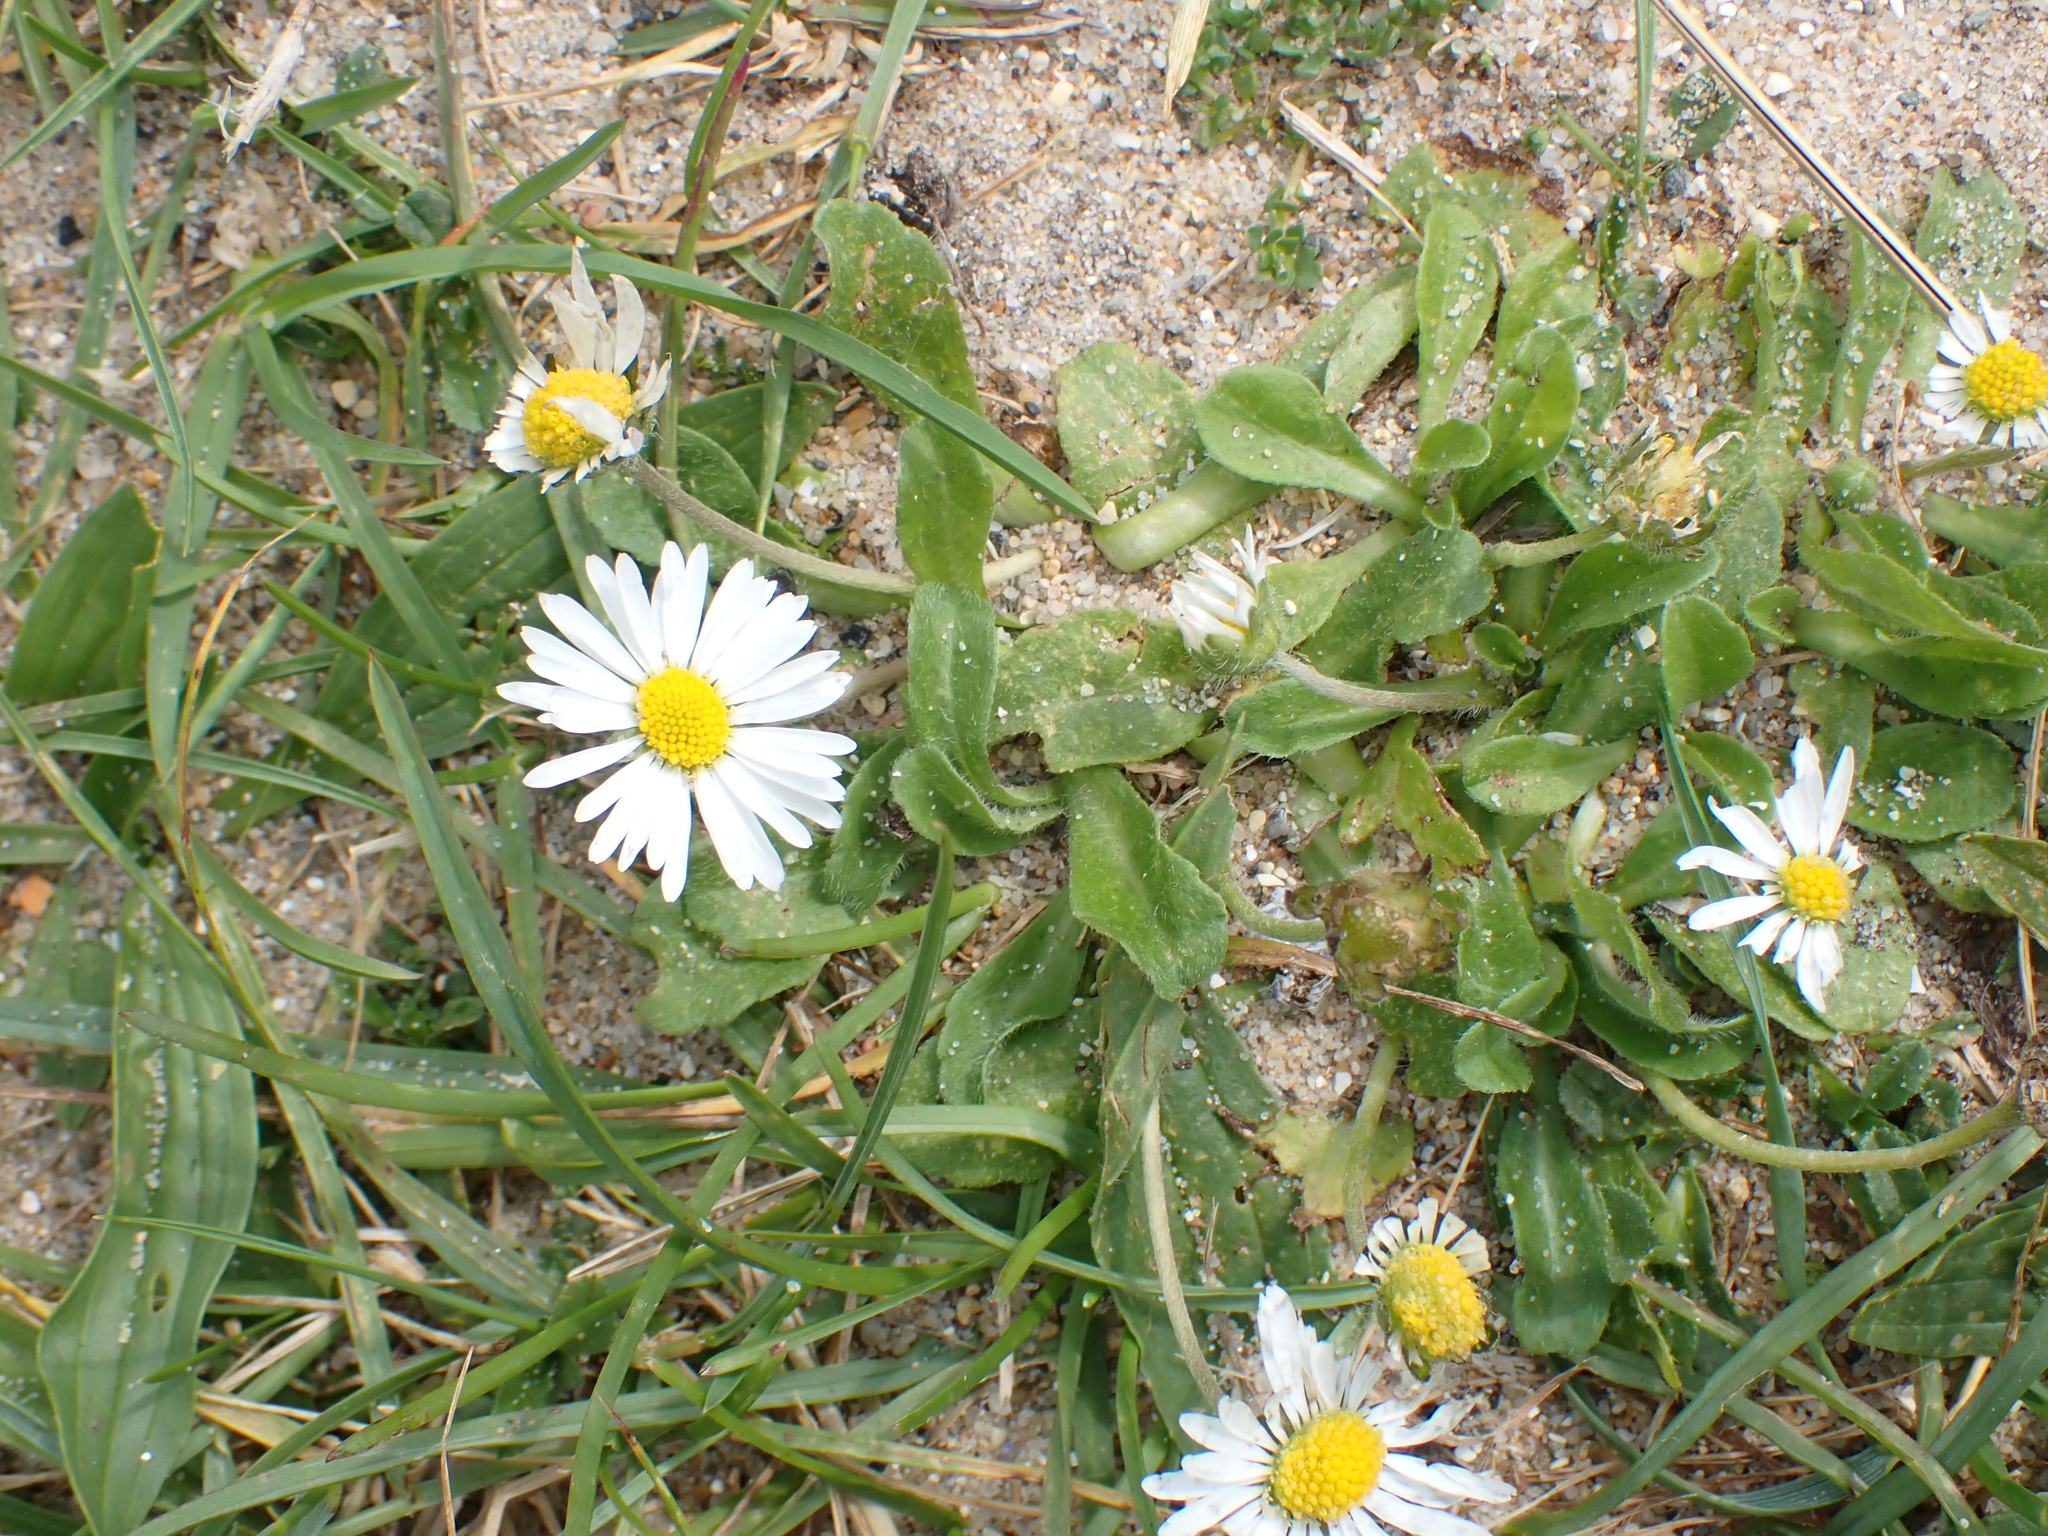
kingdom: Plantae
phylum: Tracheophyta
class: Magnoliopsida
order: Asterales
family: Asteraceae
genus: Bellis
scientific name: Bellis perennis
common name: Lawndaisy
